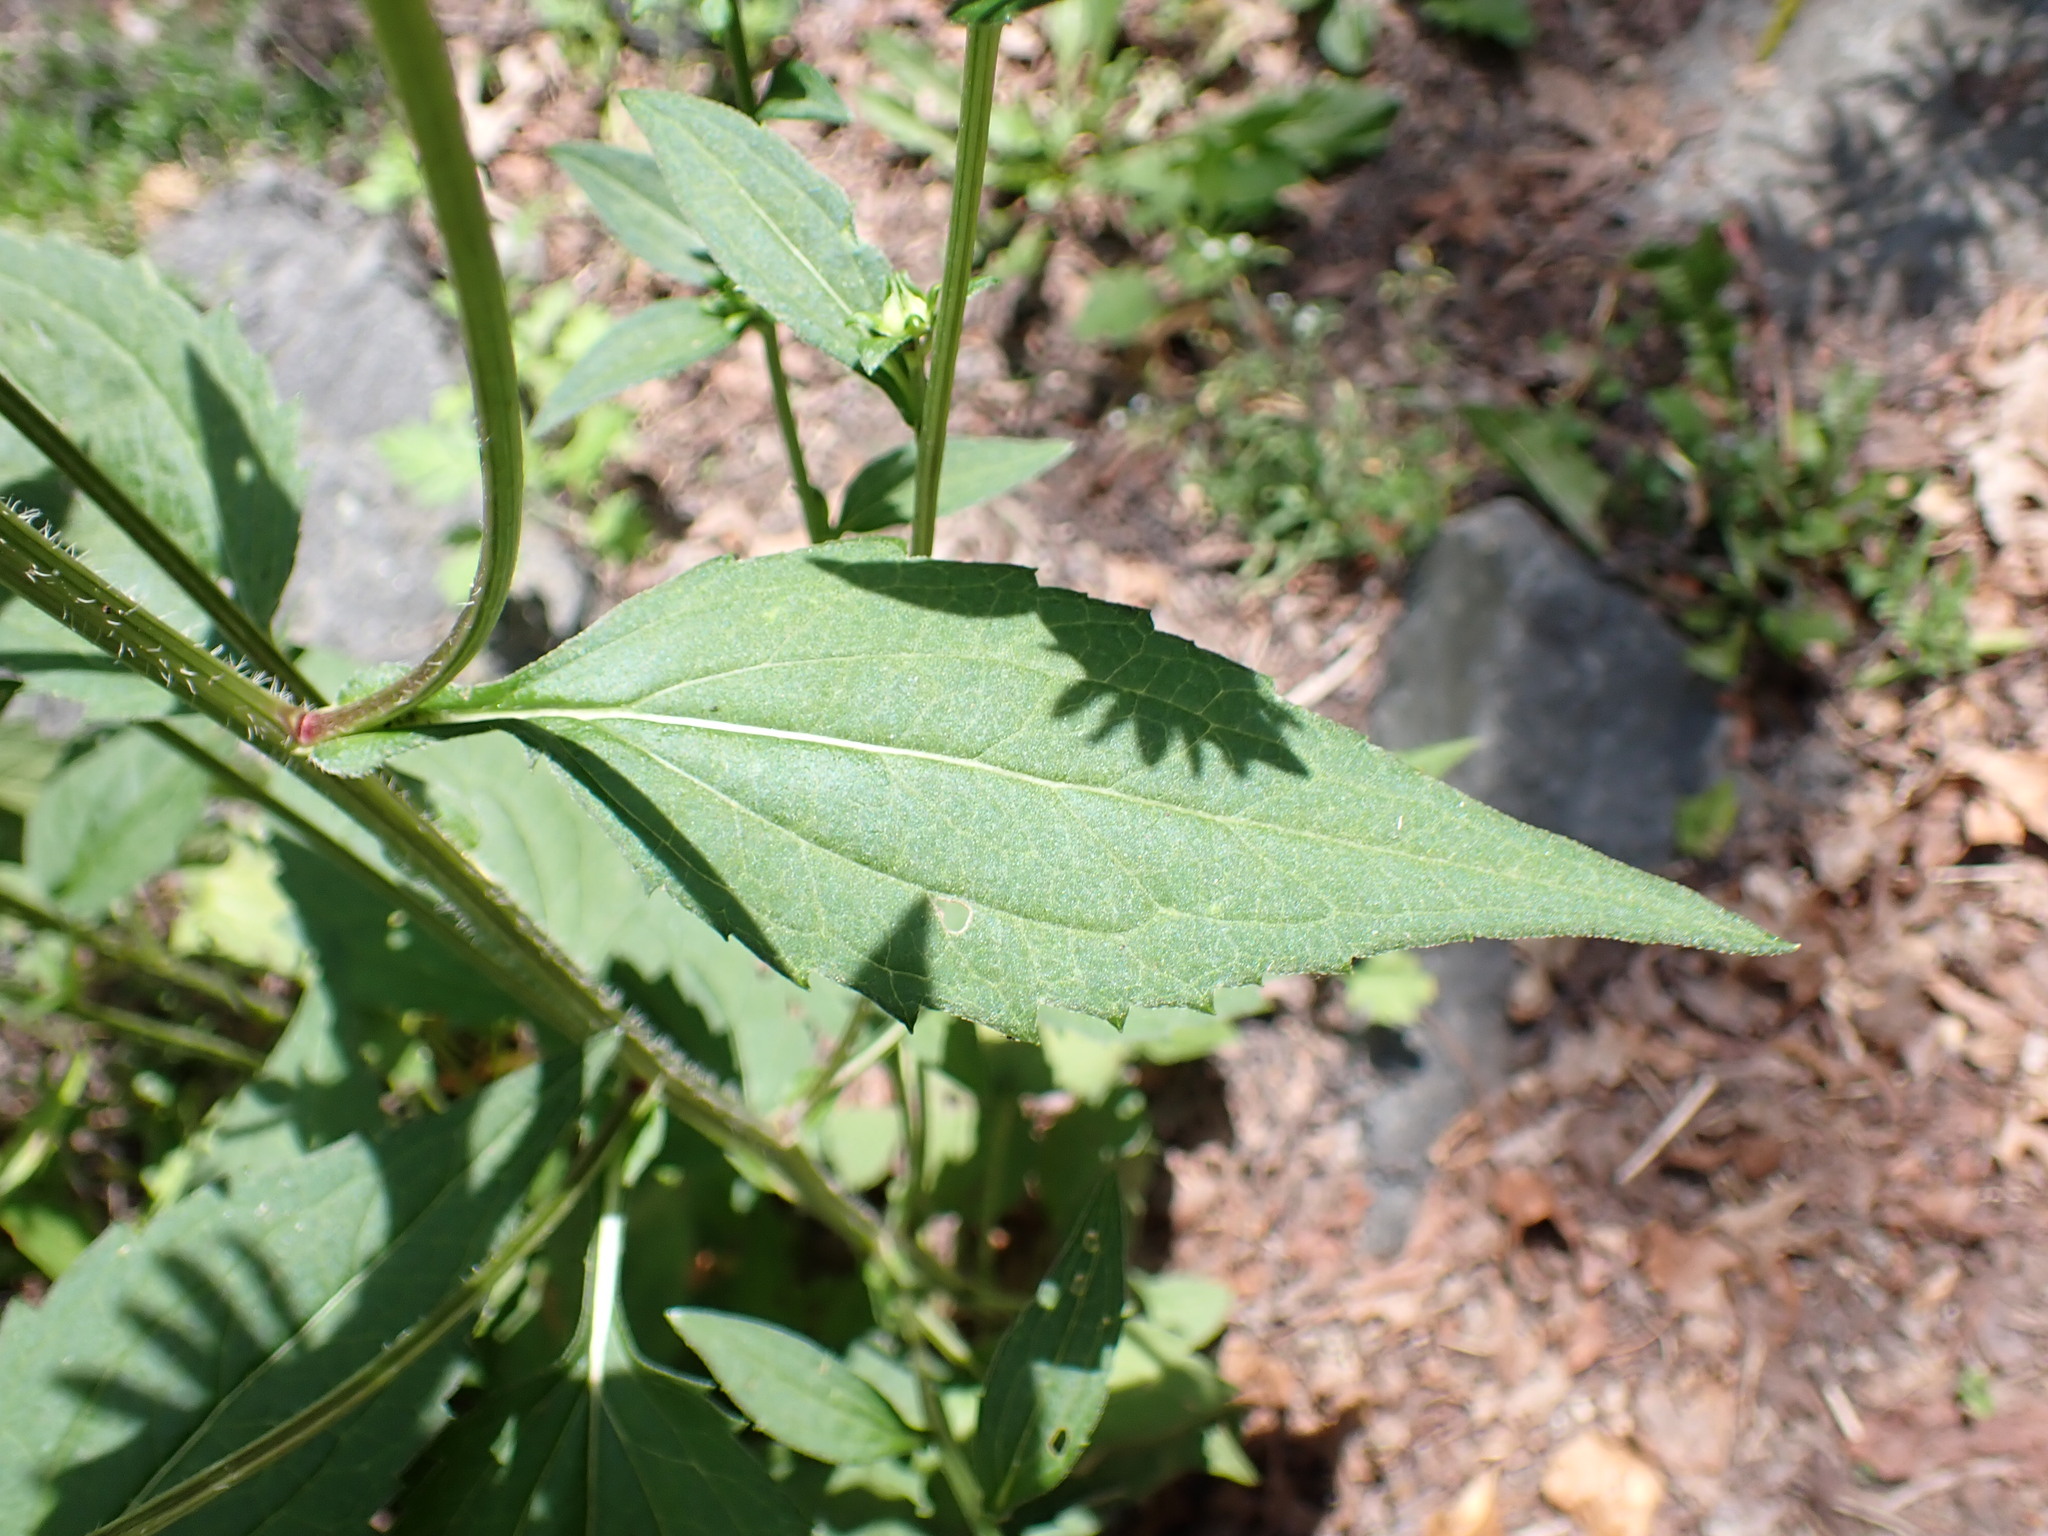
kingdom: Plantae
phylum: Tracheophyta
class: Magnoliopsida
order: Asterales
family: Asteraceae
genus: Rudbeckia
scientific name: Rudbeckia fulgida
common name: Perennial coneflower
